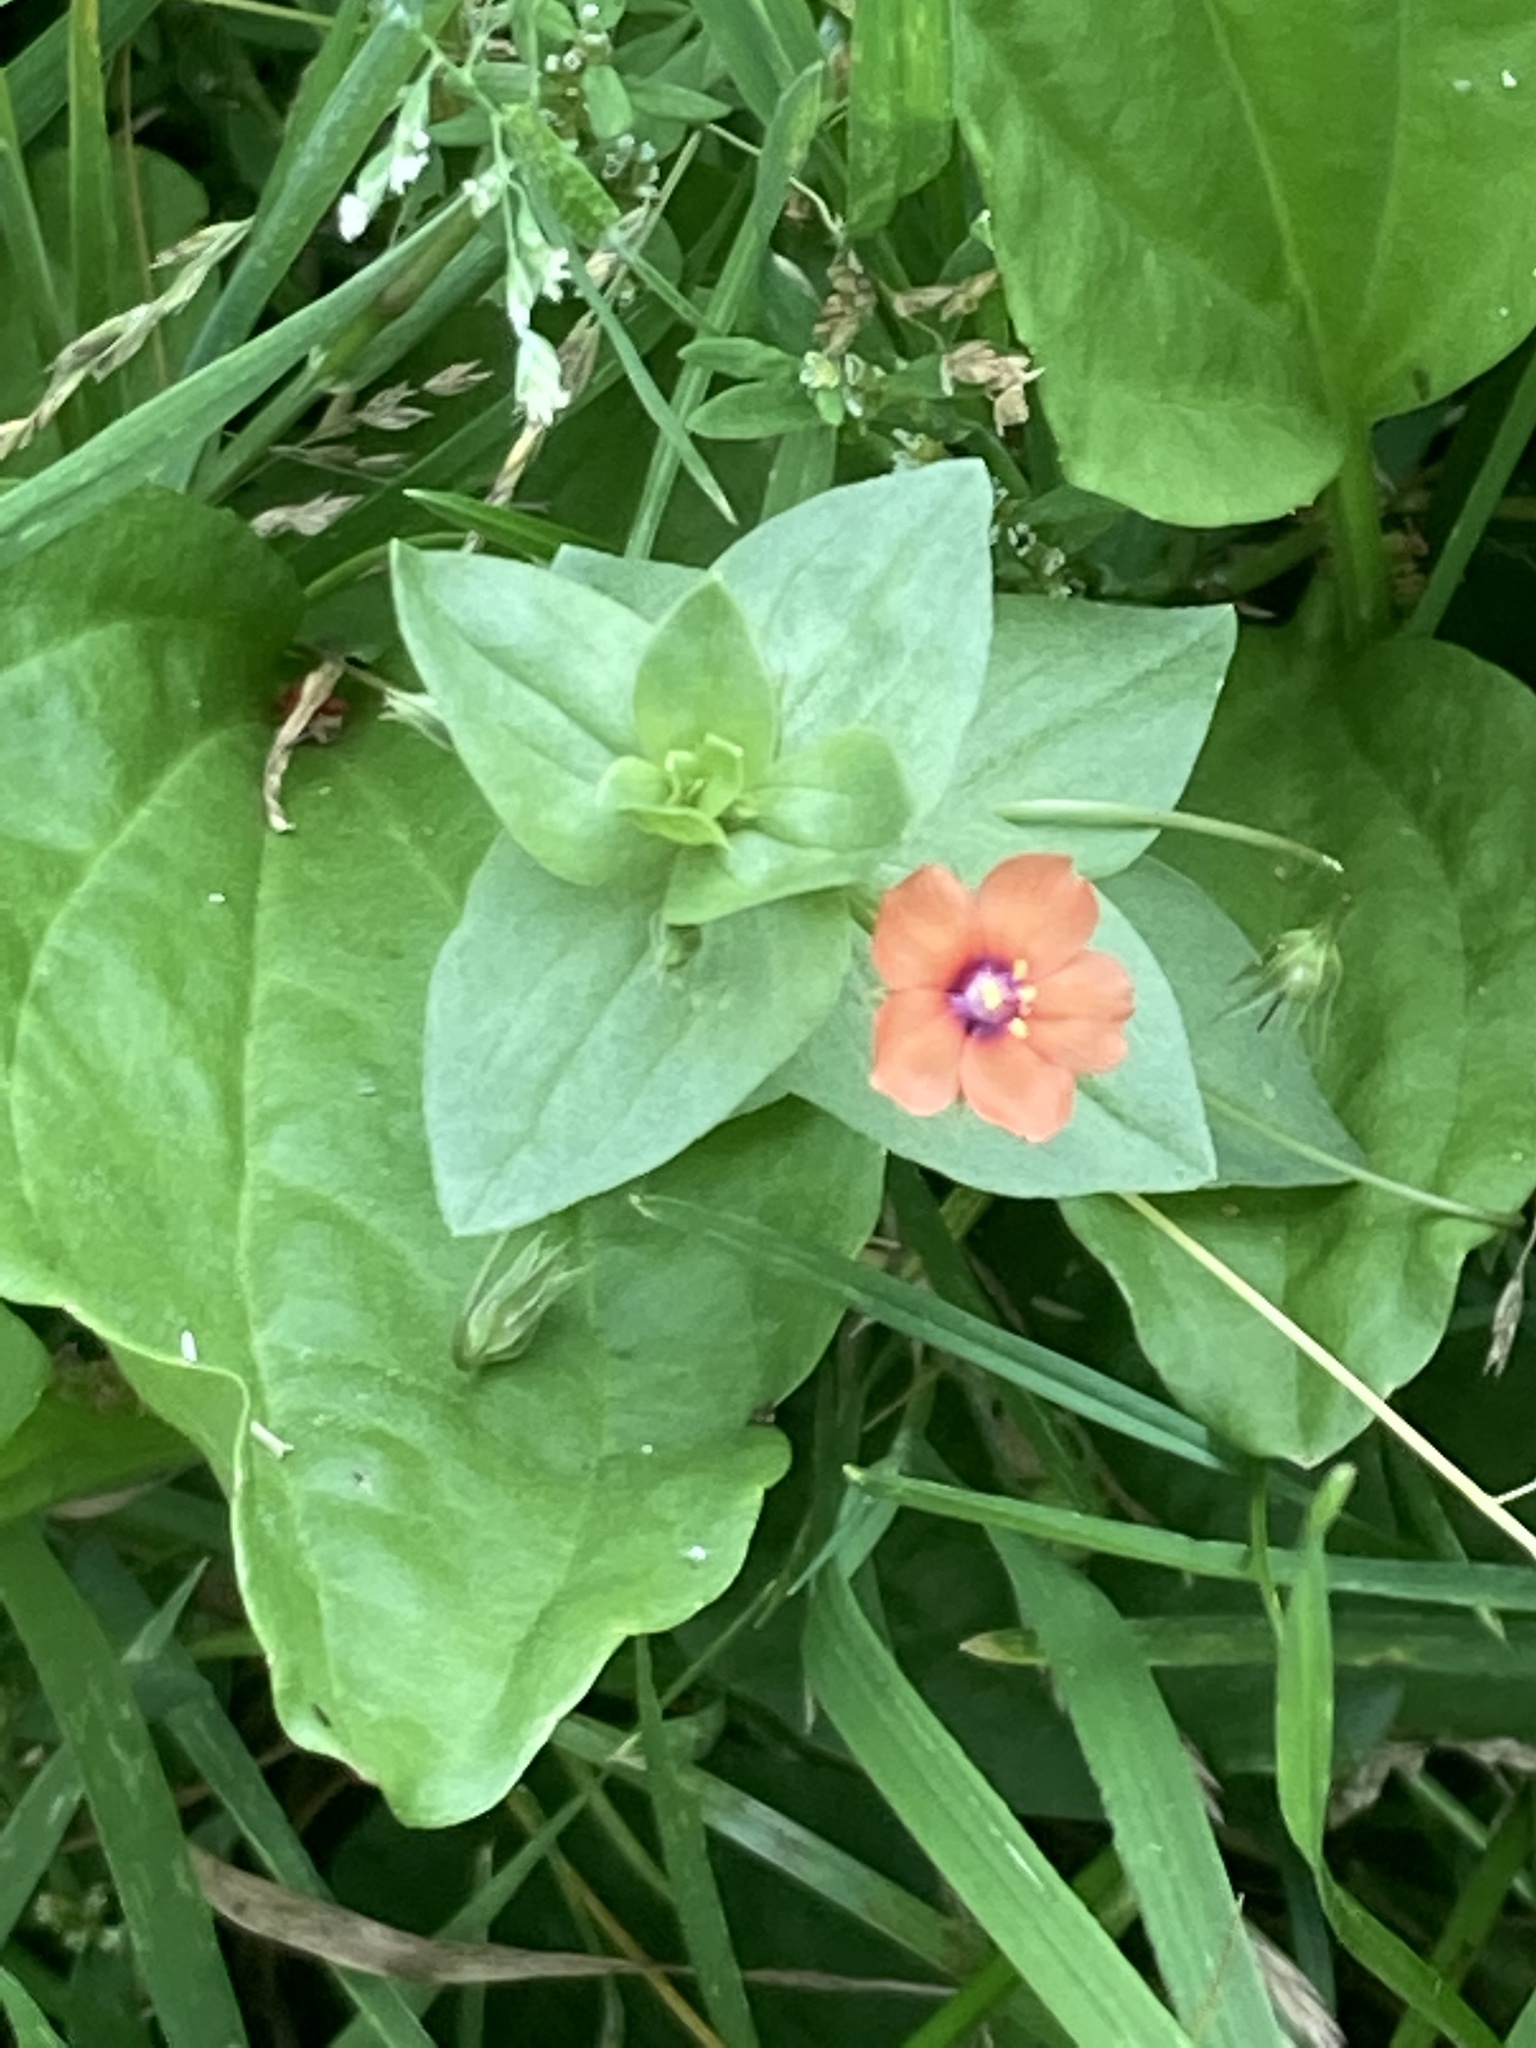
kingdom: Plantae
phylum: Tracheophyta
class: Magnoliopsida
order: Ericales
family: Primulaceae
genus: Lysimachia
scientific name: Lysimachia arvensis
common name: Scarlet pimpernel
